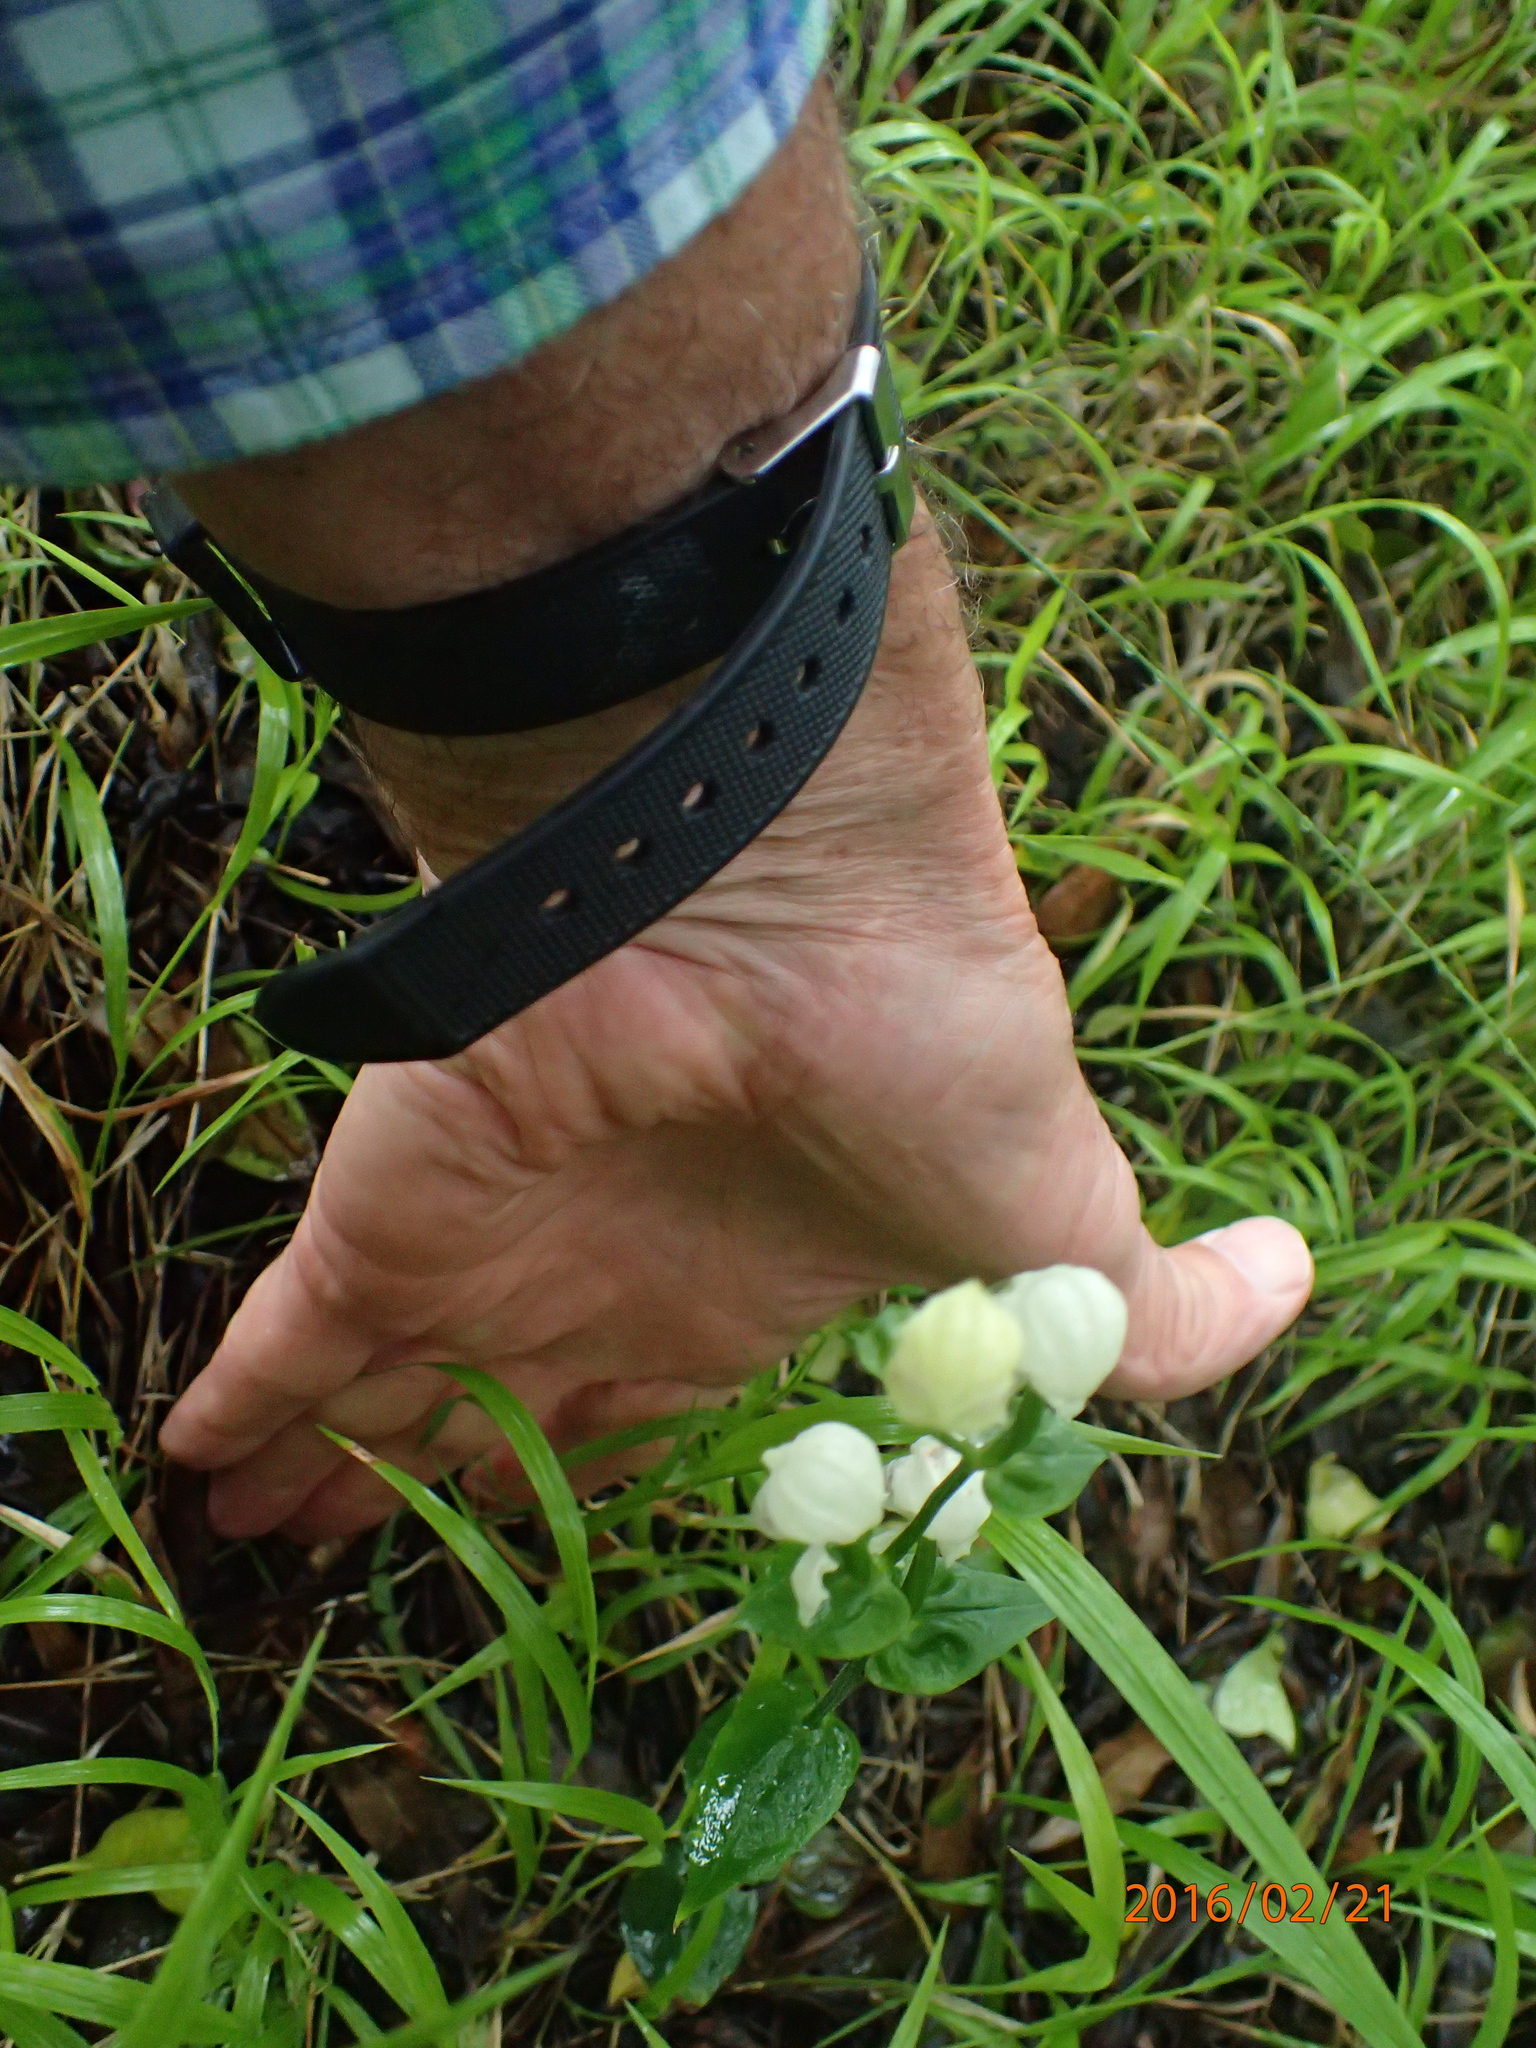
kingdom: Plantae
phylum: Tracheophyta
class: Liliopsida
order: Asparagales
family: Orchidaceae
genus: Disperis
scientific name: Disperis fanniniae
